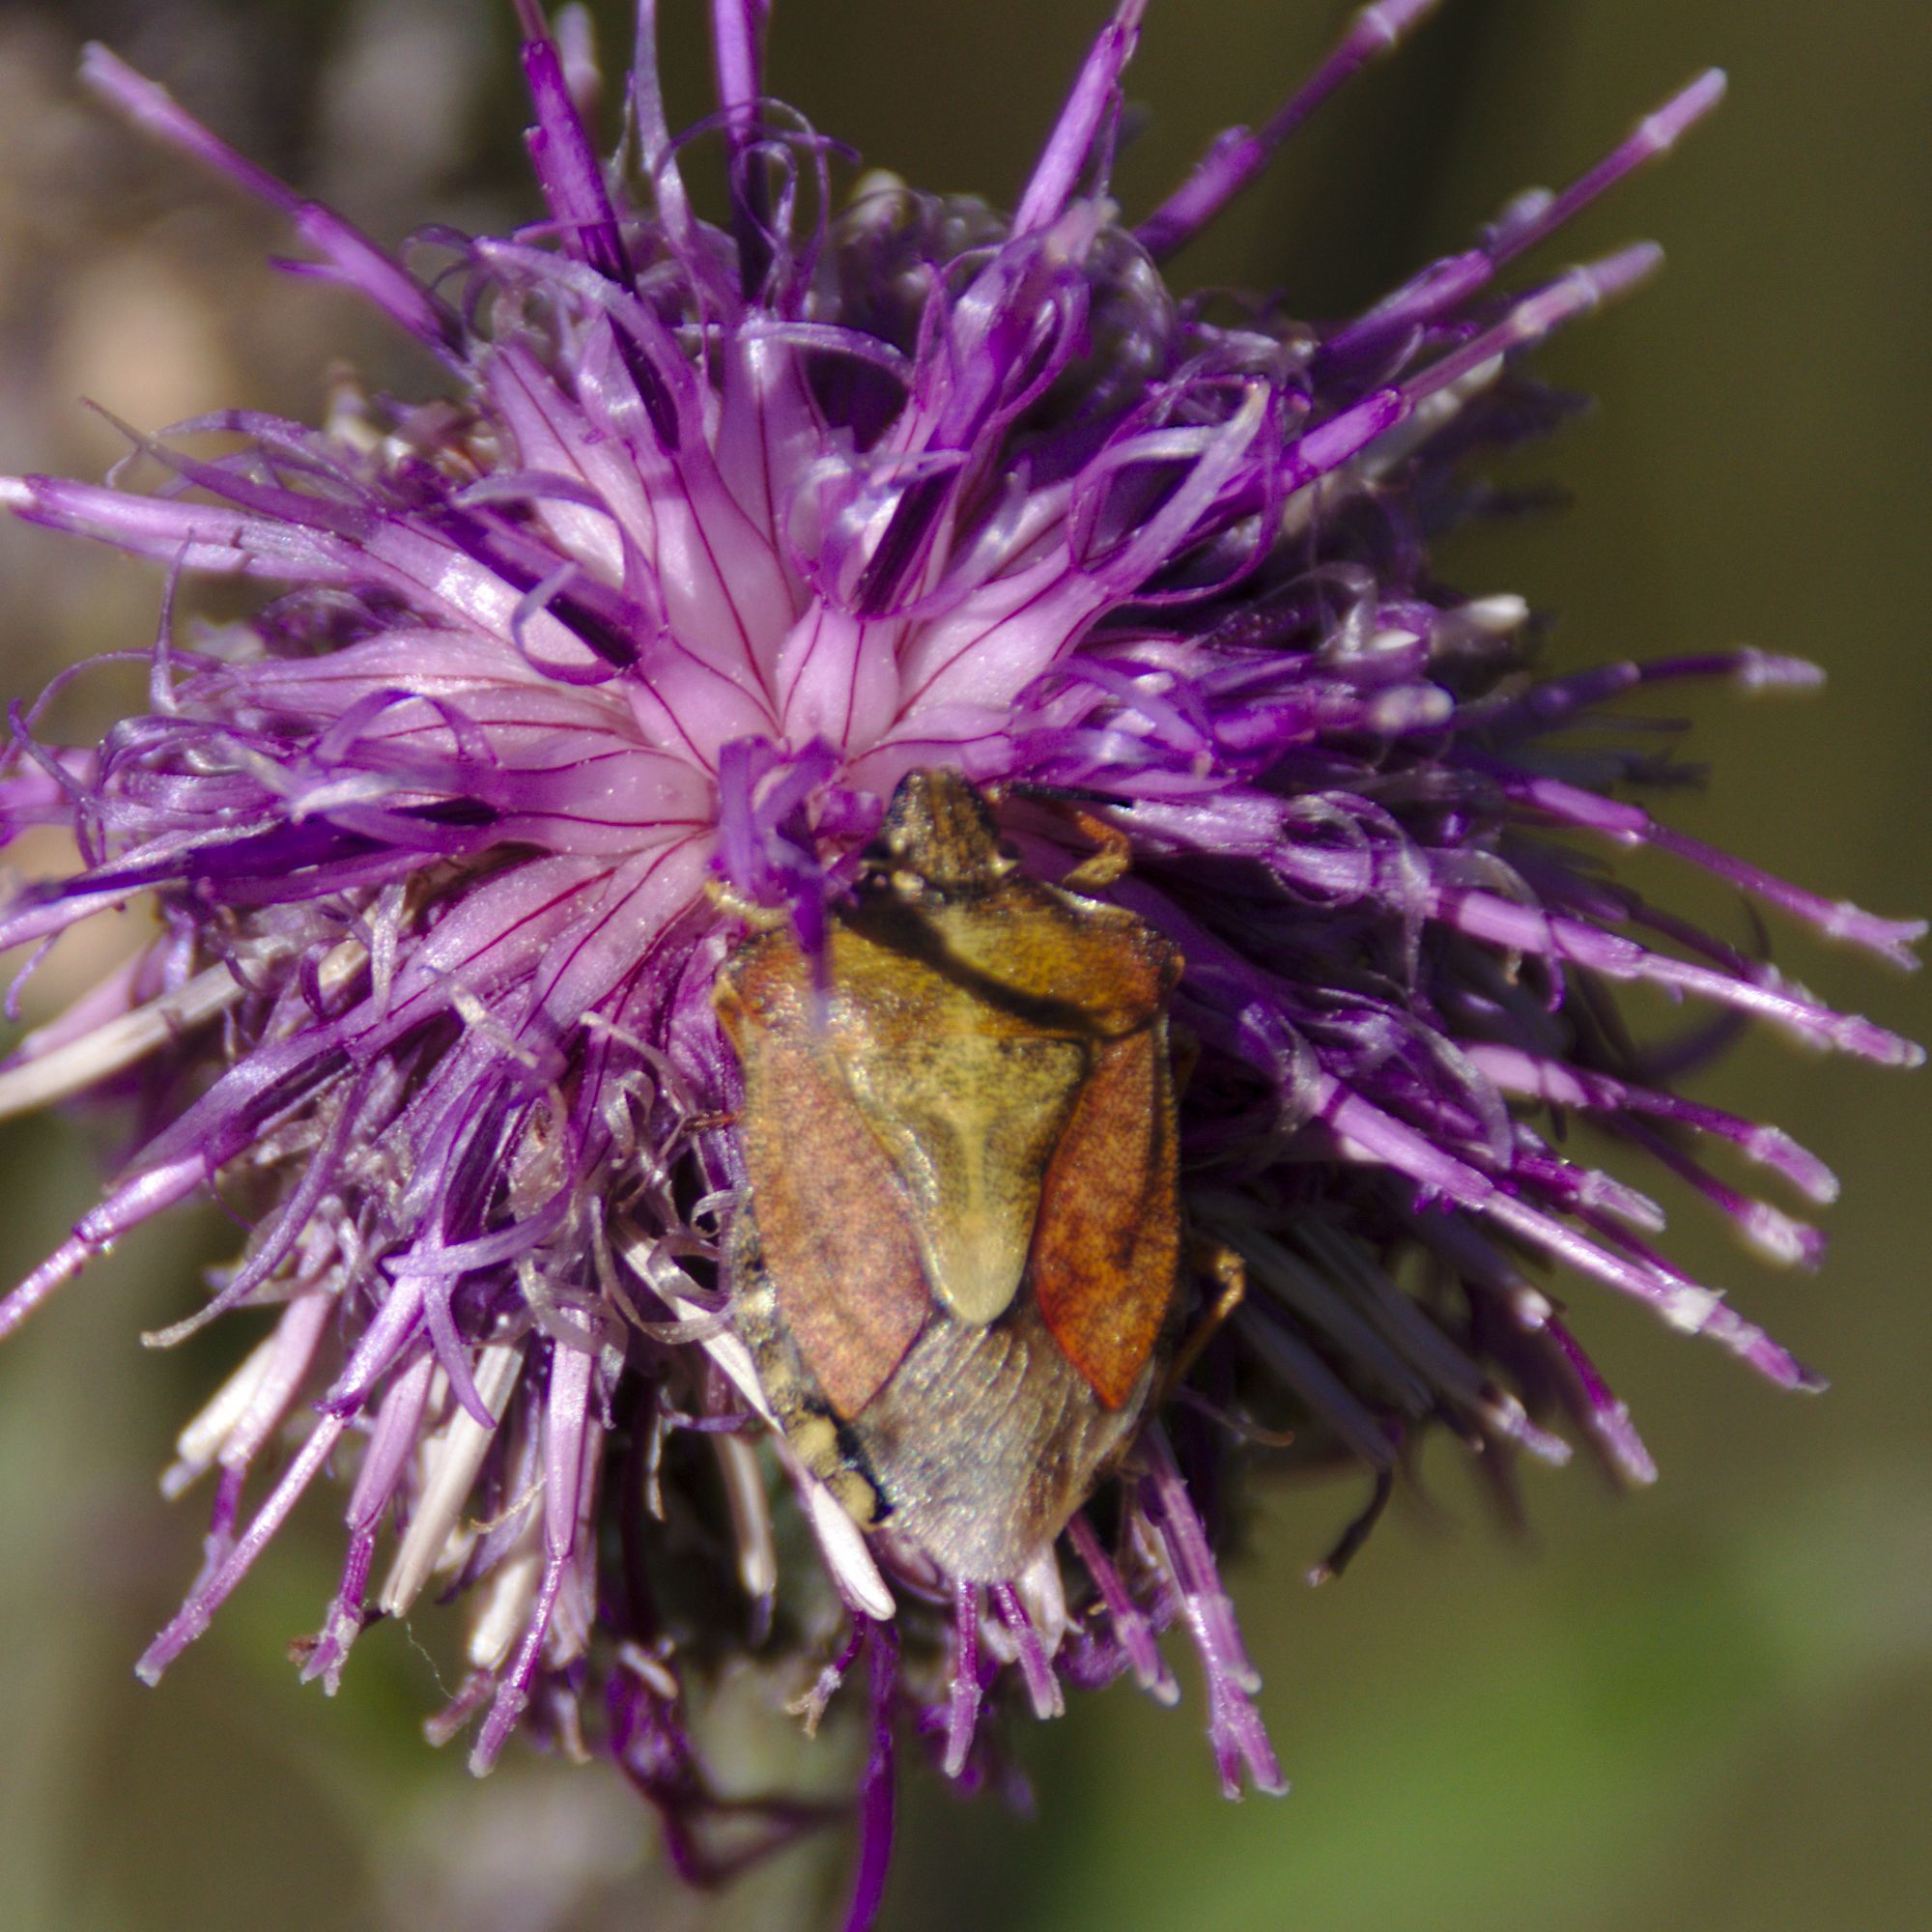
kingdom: Animalia
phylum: Arthropoda
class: Insecta
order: Hemiptera
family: Pentatomidae
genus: Carpocoris
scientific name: Carpocoris purpureipennis
